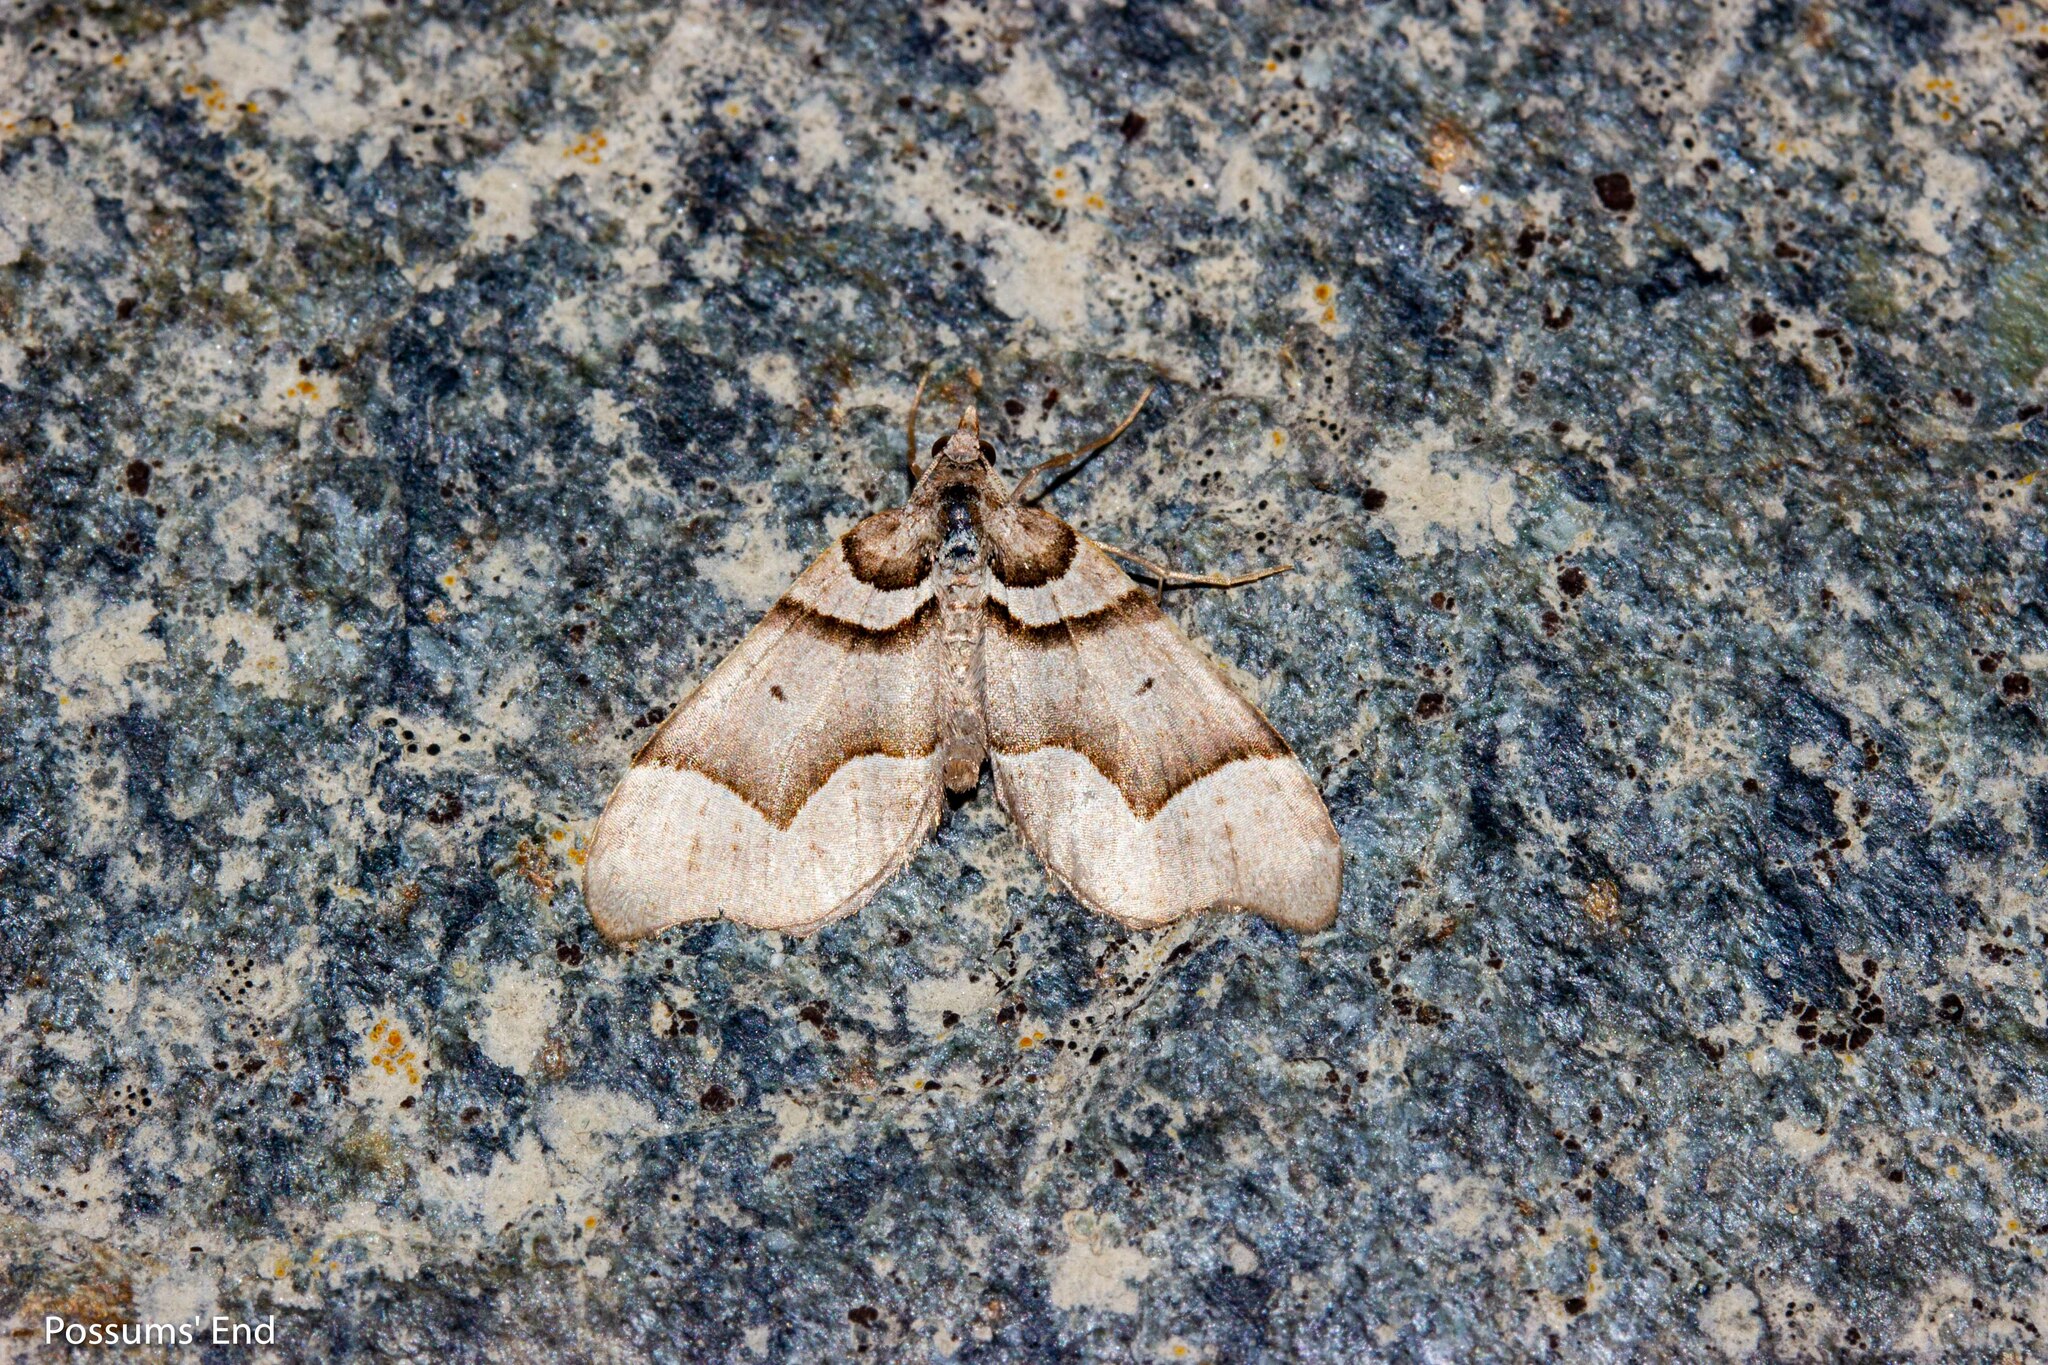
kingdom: Animalia
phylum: Arthropoda
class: Insecta
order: Lepidoptera
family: Geometridae
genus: Helastia
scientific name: Helastia triphragma
